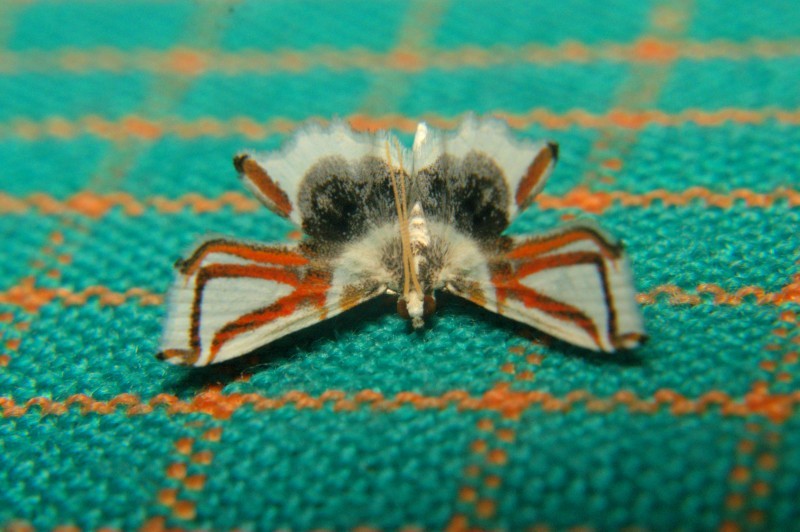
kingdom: Animalia
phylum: Arthropoda
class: Insecta
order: Lepidoptera
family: Crambidae
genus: Siamusotima
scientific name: Siamusotima
